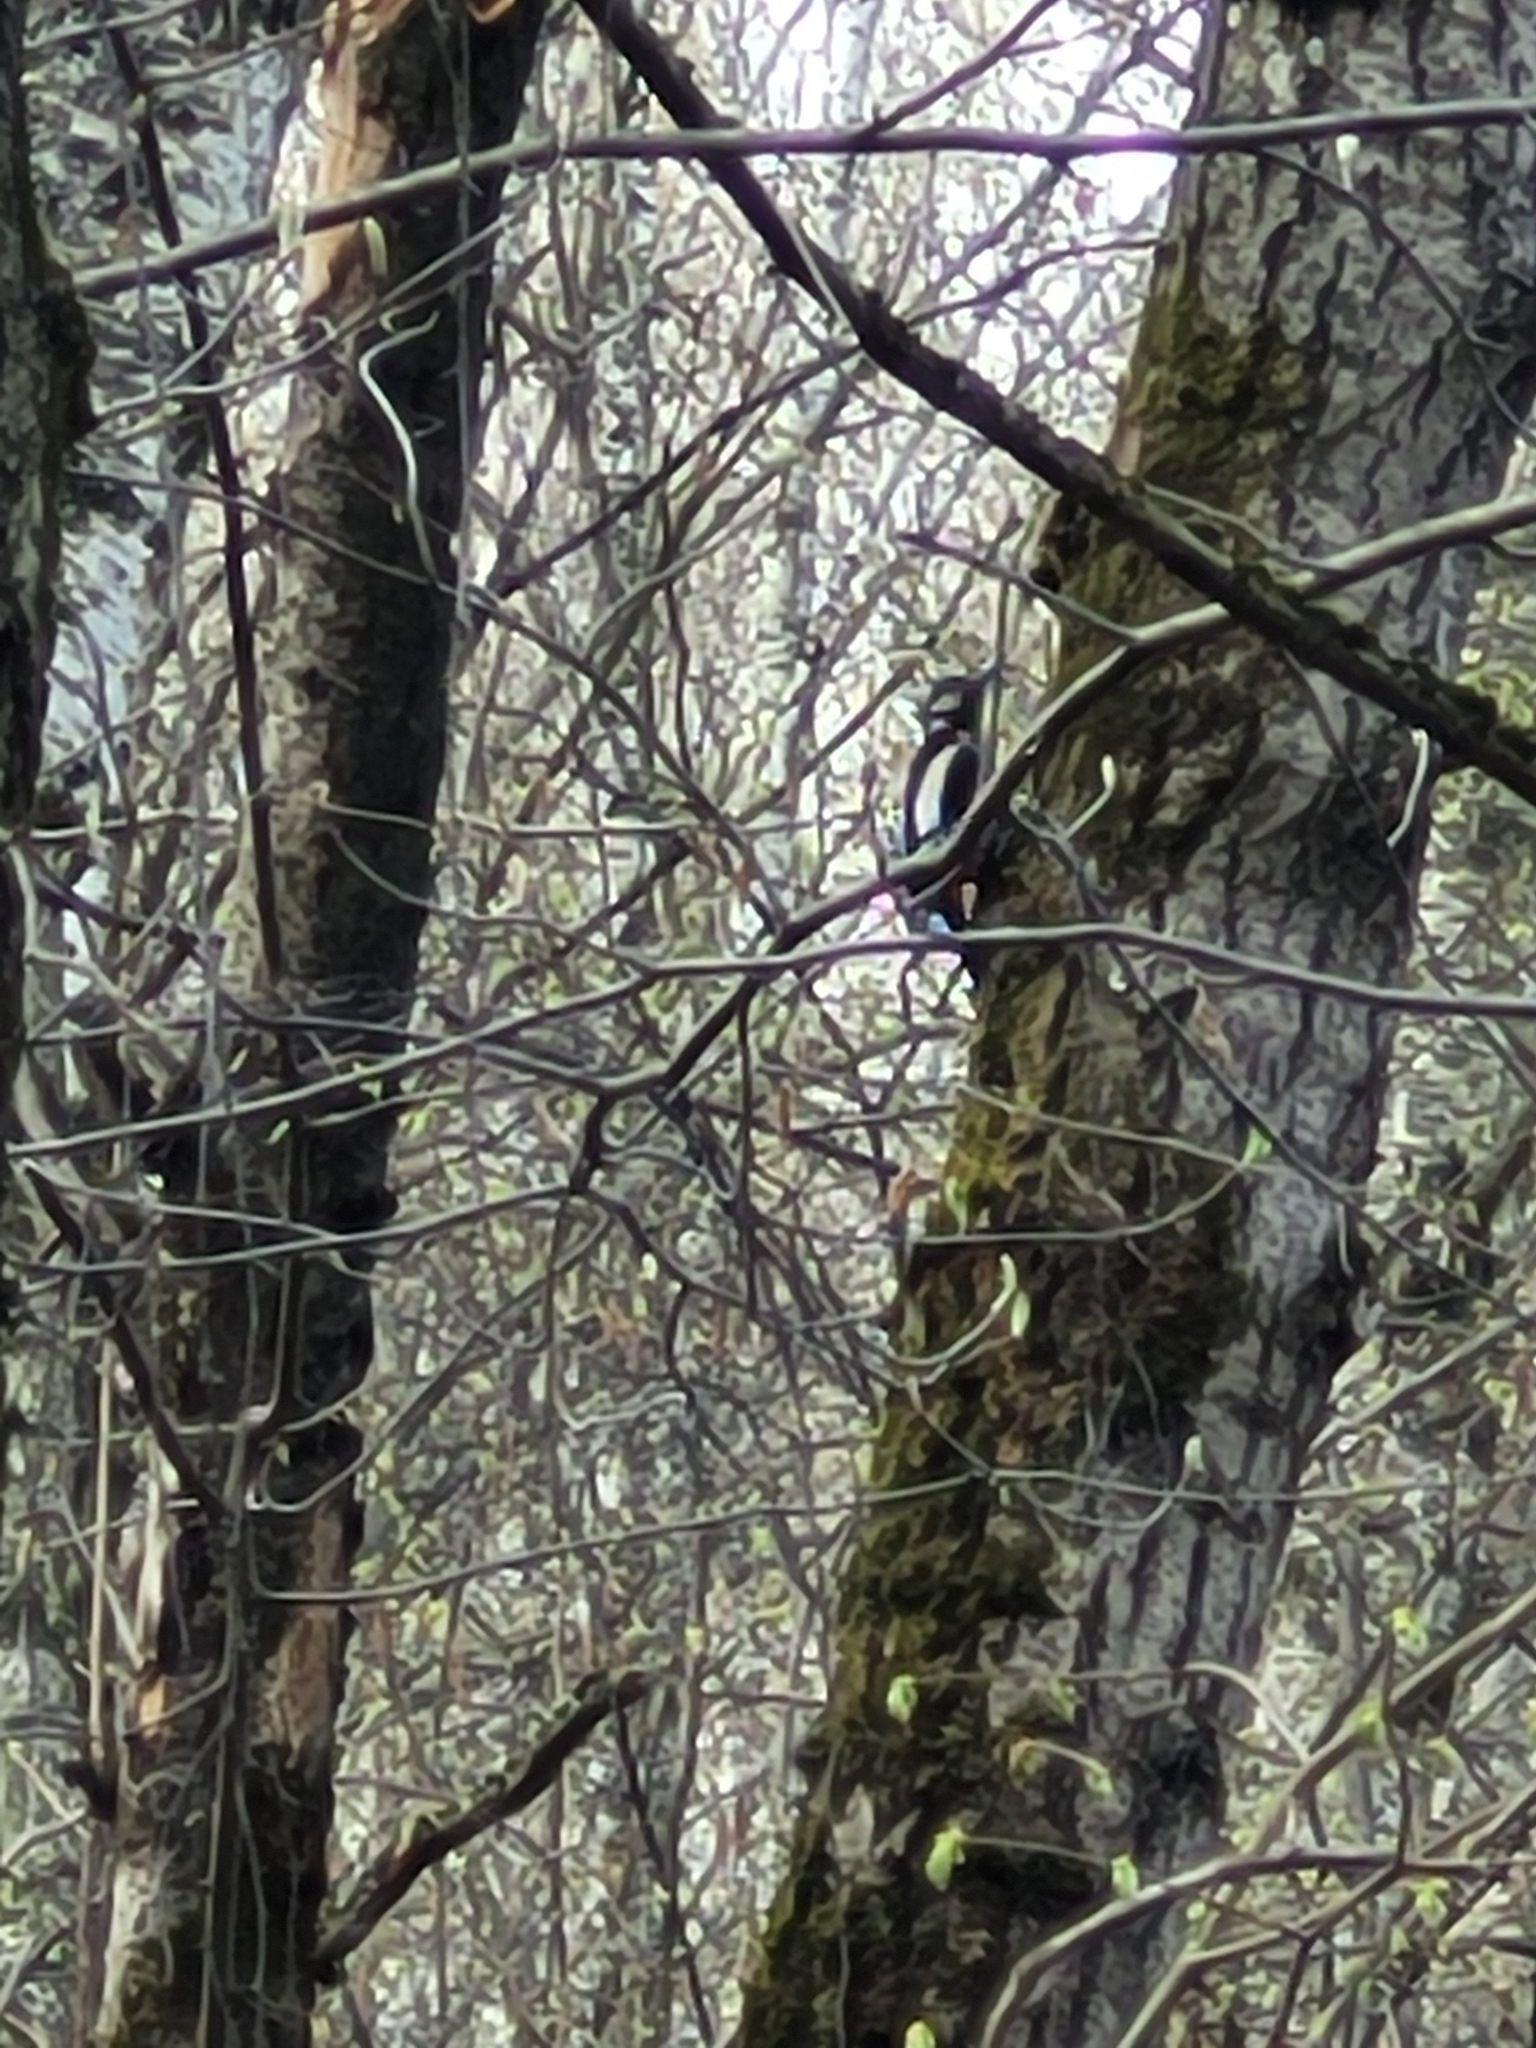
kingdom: Animalia
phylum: Chordata
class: Aves
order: Piciformes
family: Picidae
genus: Dendrocopos
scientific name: Dendrocopos major
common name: Great spotted woodpecker
